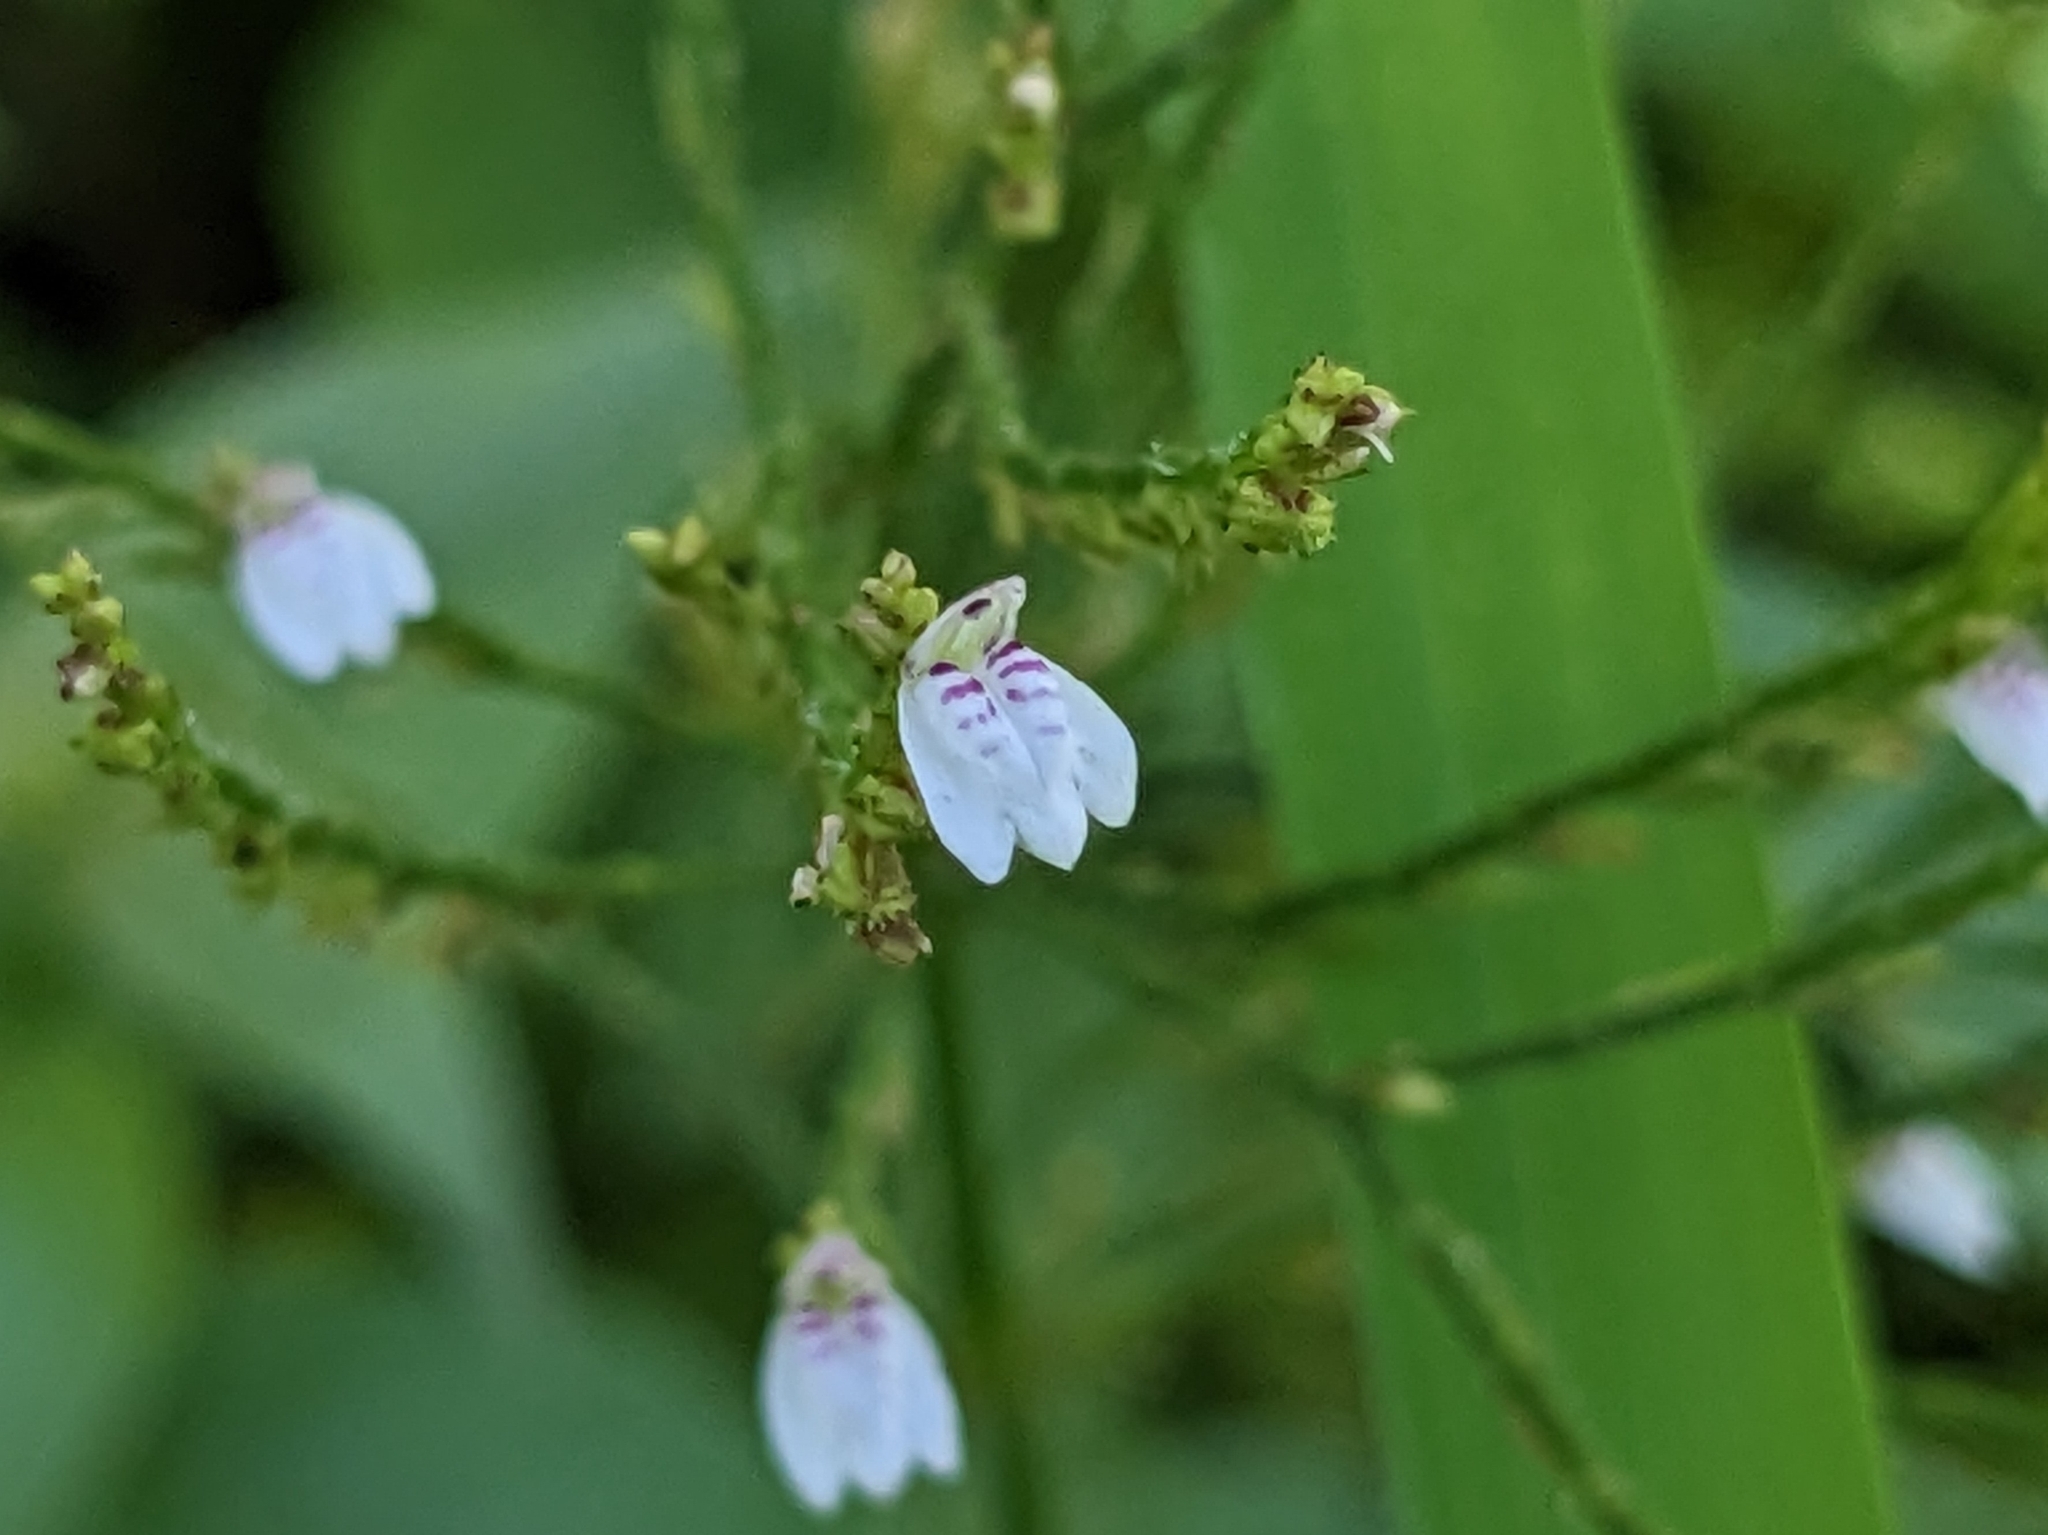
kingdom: Plantae
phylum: Tracheophyta
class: Magnoliopsida
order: Lamiales
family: Acanthaceae
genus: Justicia
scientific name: Justicia comata
